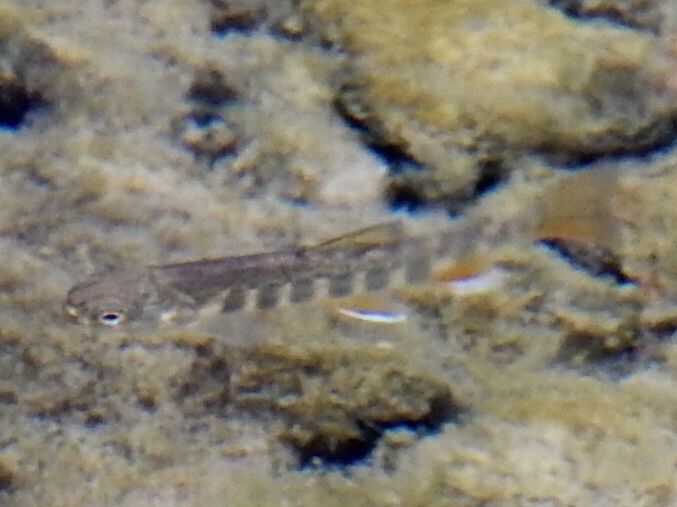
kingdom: Animalia
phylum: Chordata
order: Salmoniformes
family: Salmonidae
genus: Salvelinus
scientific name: Salvelinus fontinalis
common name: Brook trout
